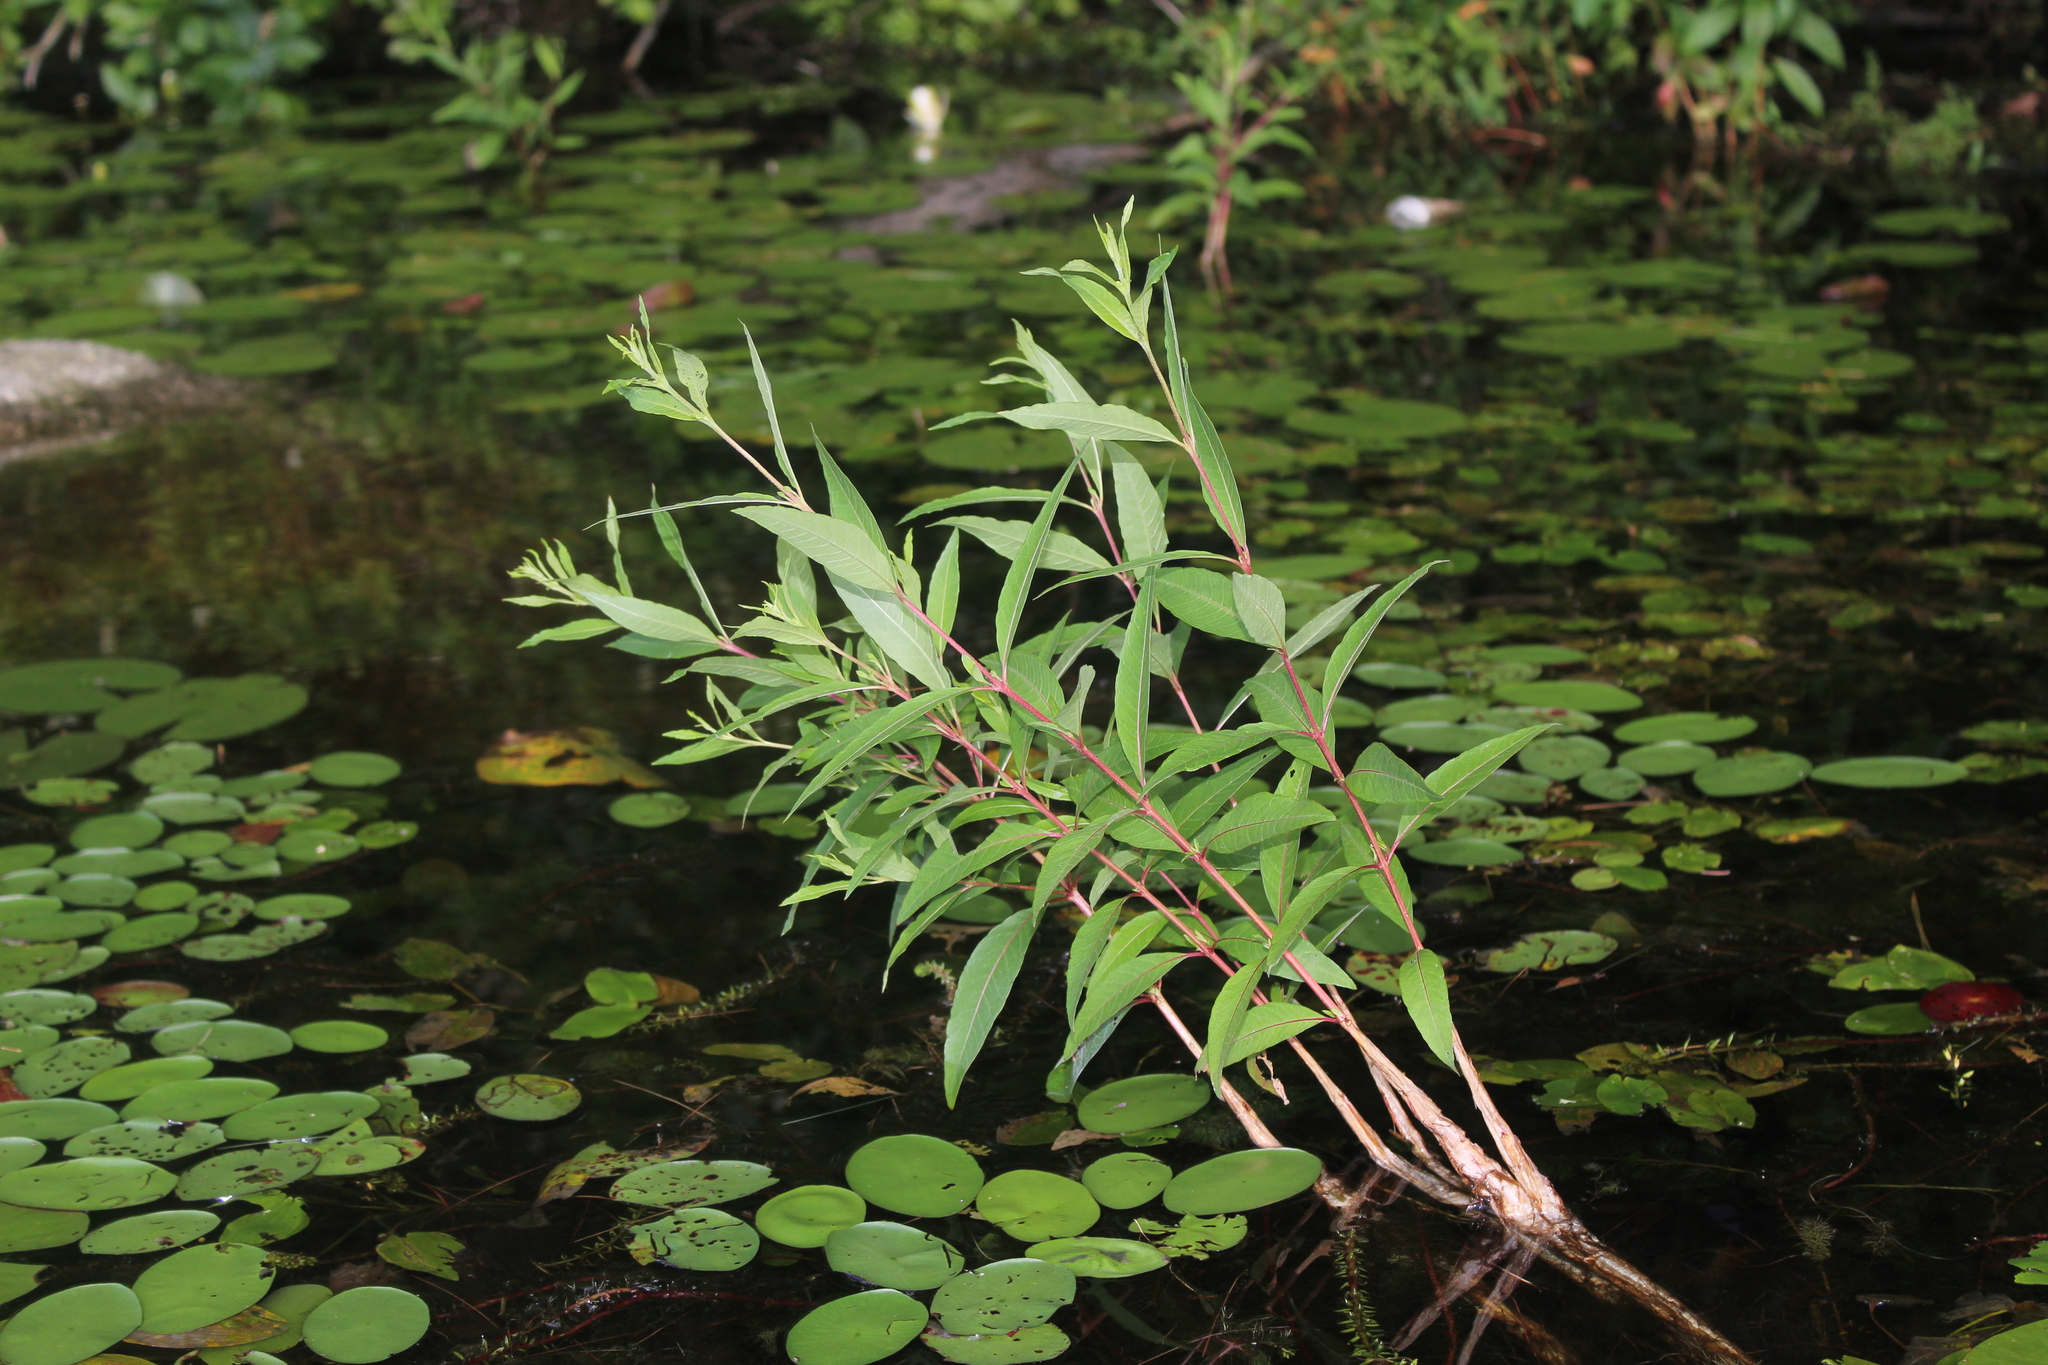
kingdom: Plantae
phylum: Tracheophyta
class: Magnoliopsida
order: Saxifragales
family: Haloragaceae
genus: Myriophyllum
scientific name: Myriophyllum heterophyllum
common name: Variable watermilfoil
